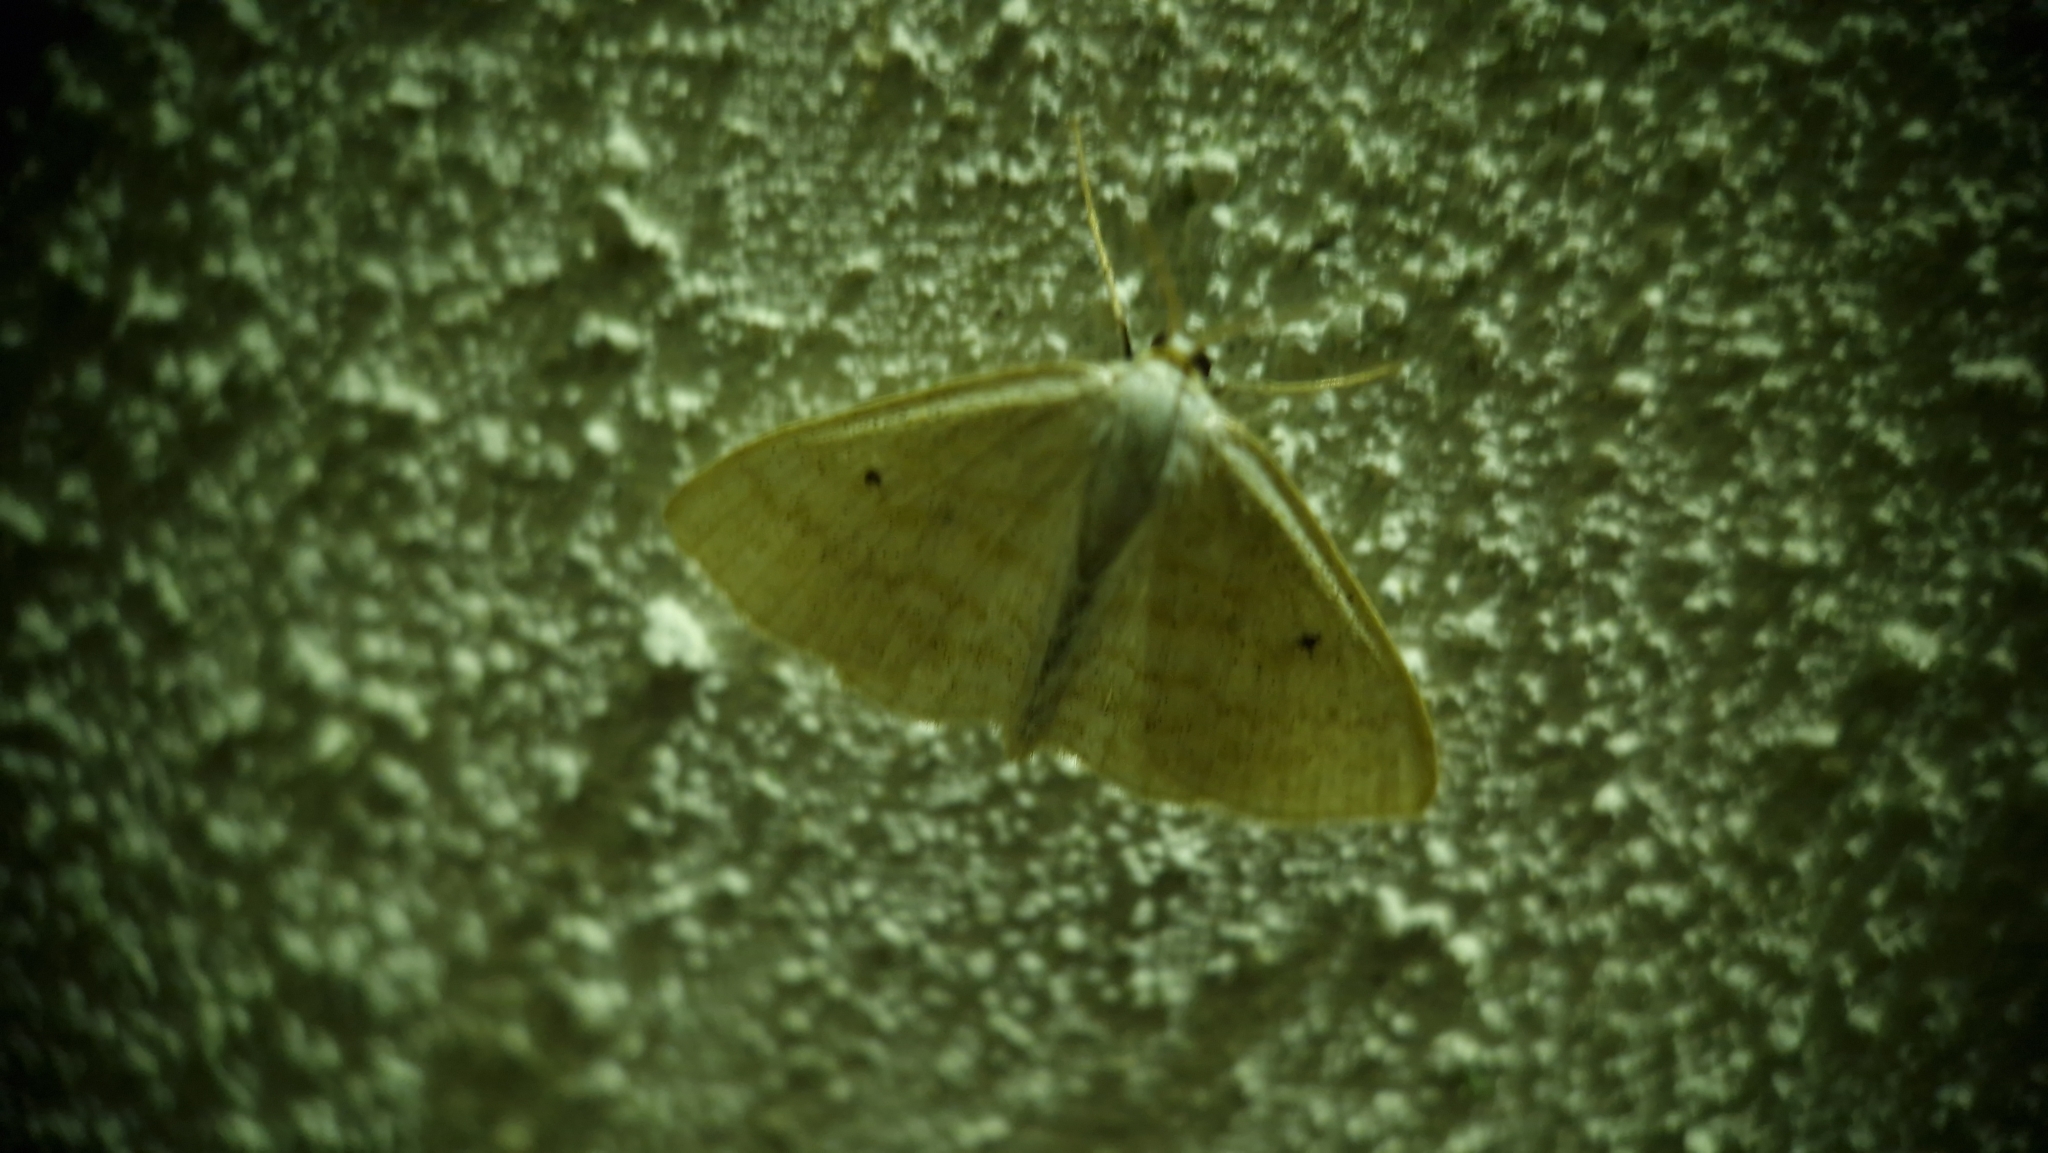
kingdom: Animalia
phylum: Arthropoda
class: Insecta
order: Lepidoptera
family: Geometridae
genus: Scopula
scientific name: Scopula immutata
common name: Lesser cream wave
